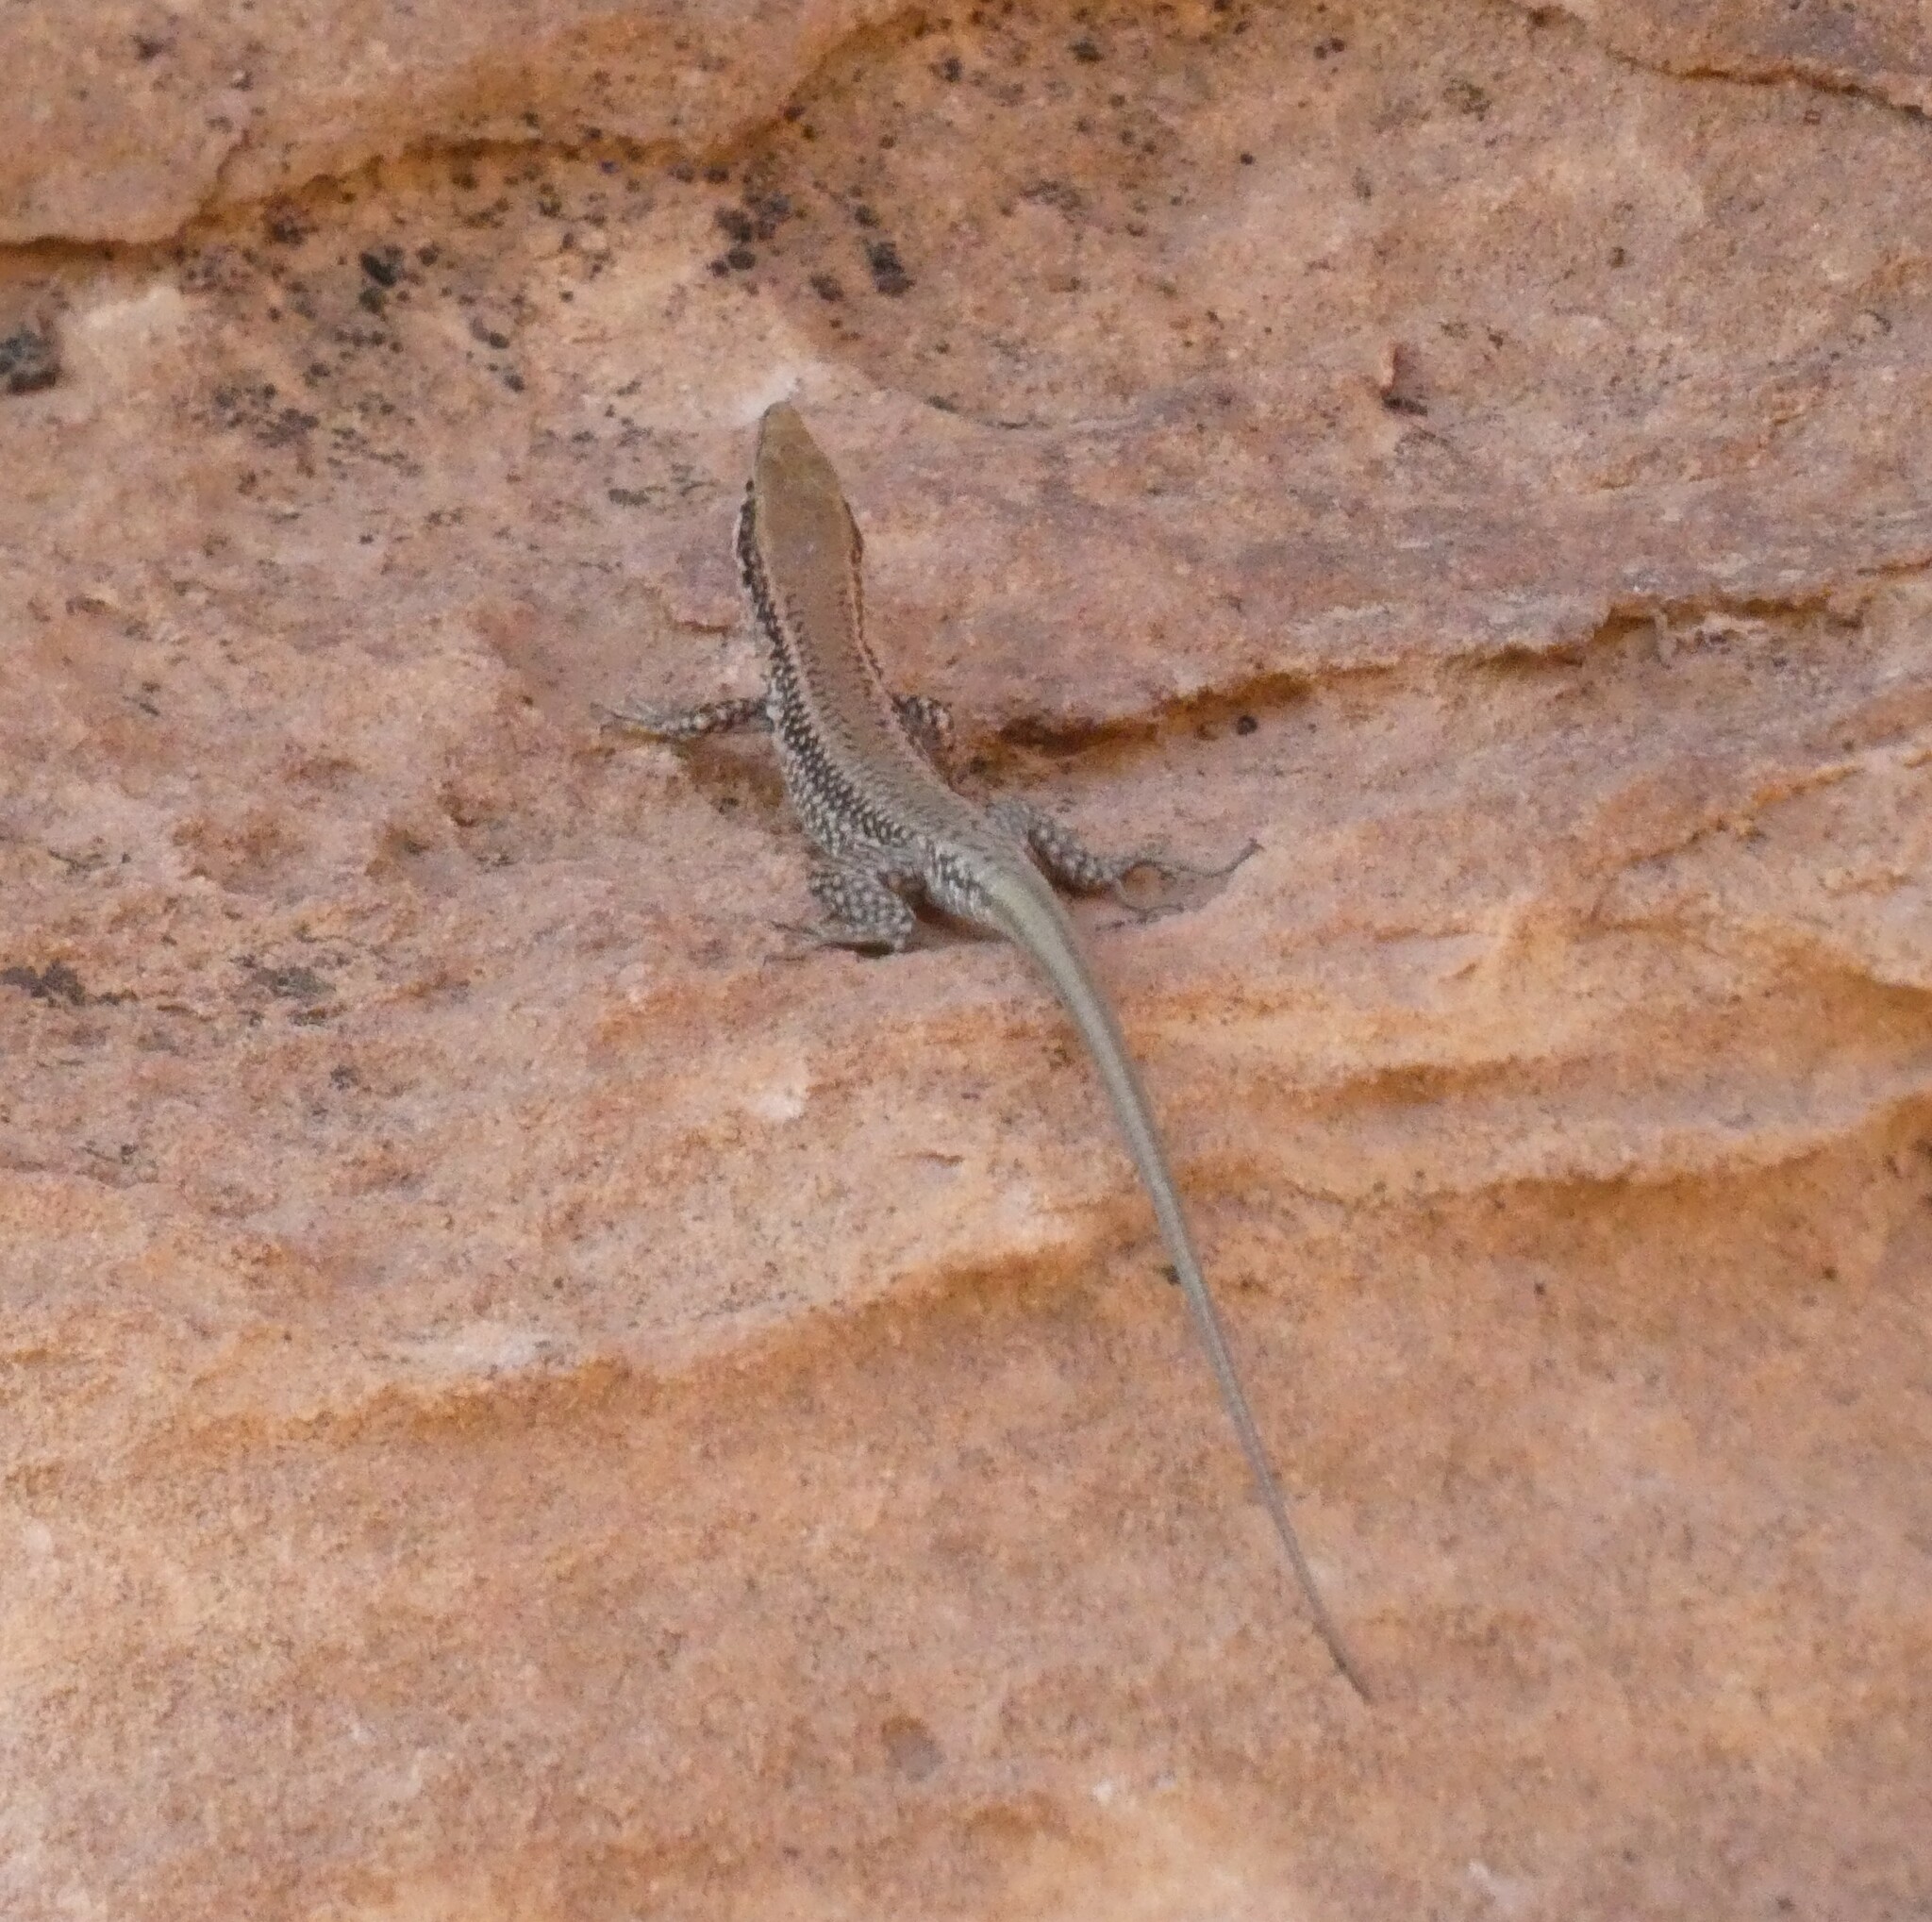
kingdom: Animalia
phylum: Chordata
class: Squamata
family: Lacertidae
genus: Phoenicolacerta
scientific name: Phoenicolacerta kulzeri
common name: Kulzer’s rock lizard
